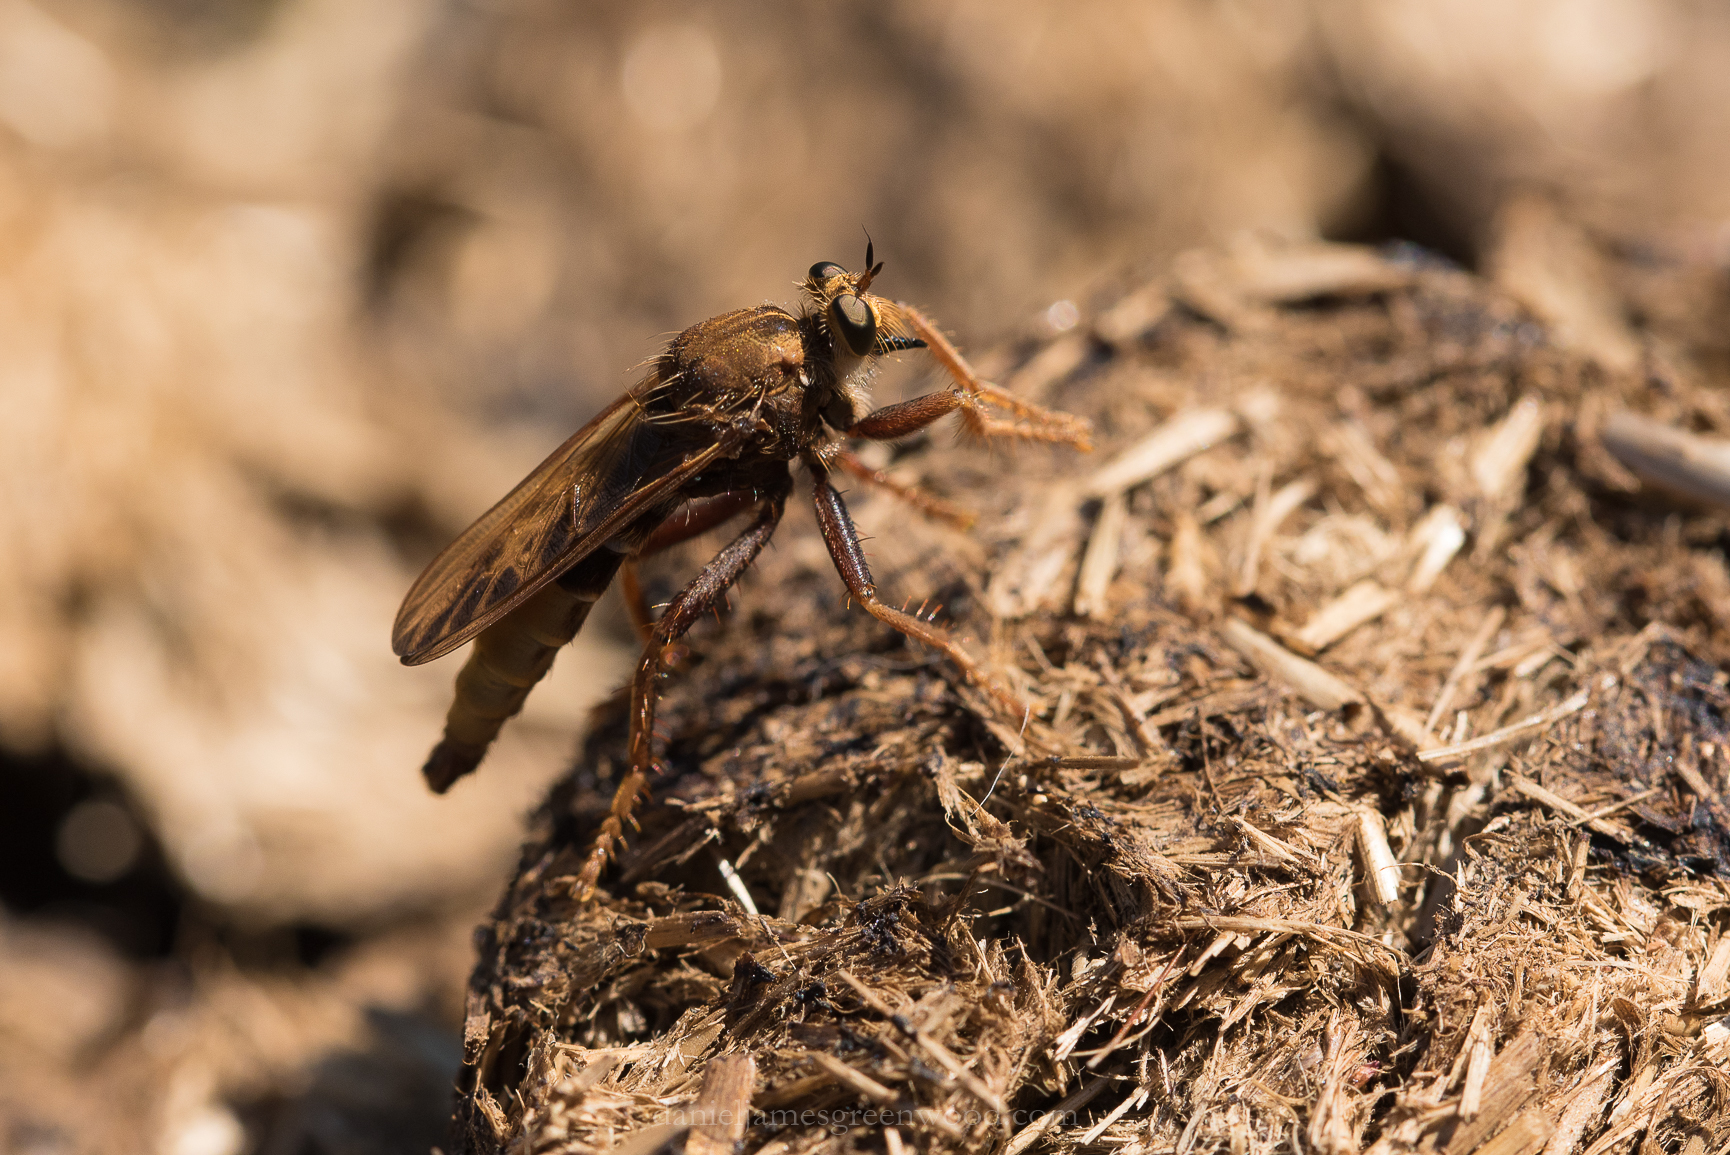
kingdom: Animalia
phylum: Arthropoda
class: Insecta
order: Diptera
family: Asilidae
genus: Asilus
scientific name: Asilus crabroniformis
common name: Hornet robberfly
